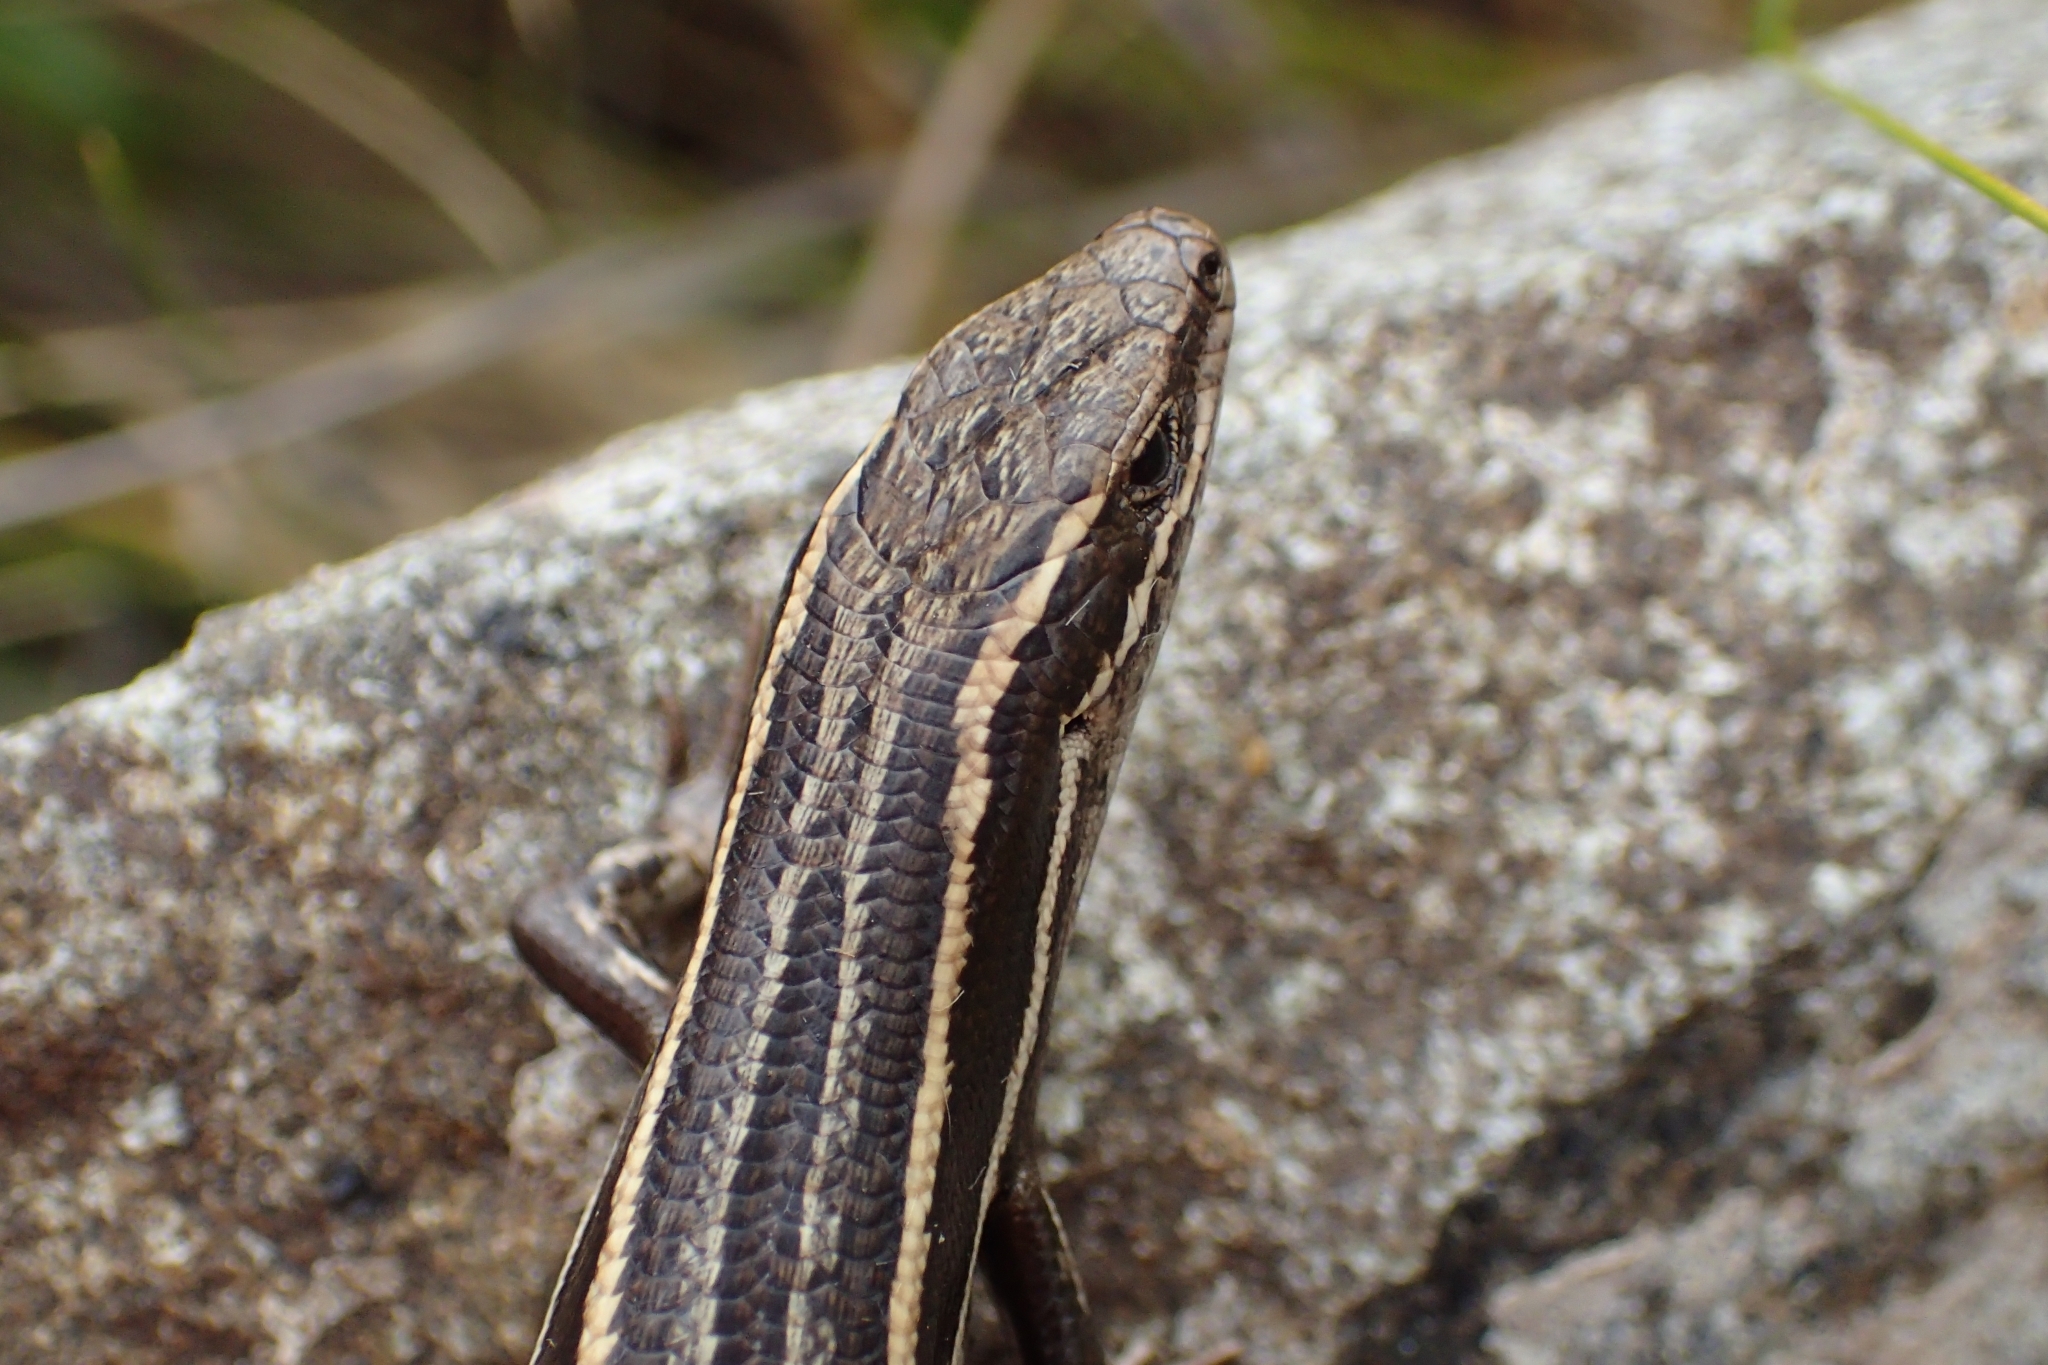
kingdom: Animalia
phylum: Chordata
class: Squamata
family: Scincidae
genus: Oligosoma
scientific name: Oligosoma maccanni
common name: Mccann’s skink
